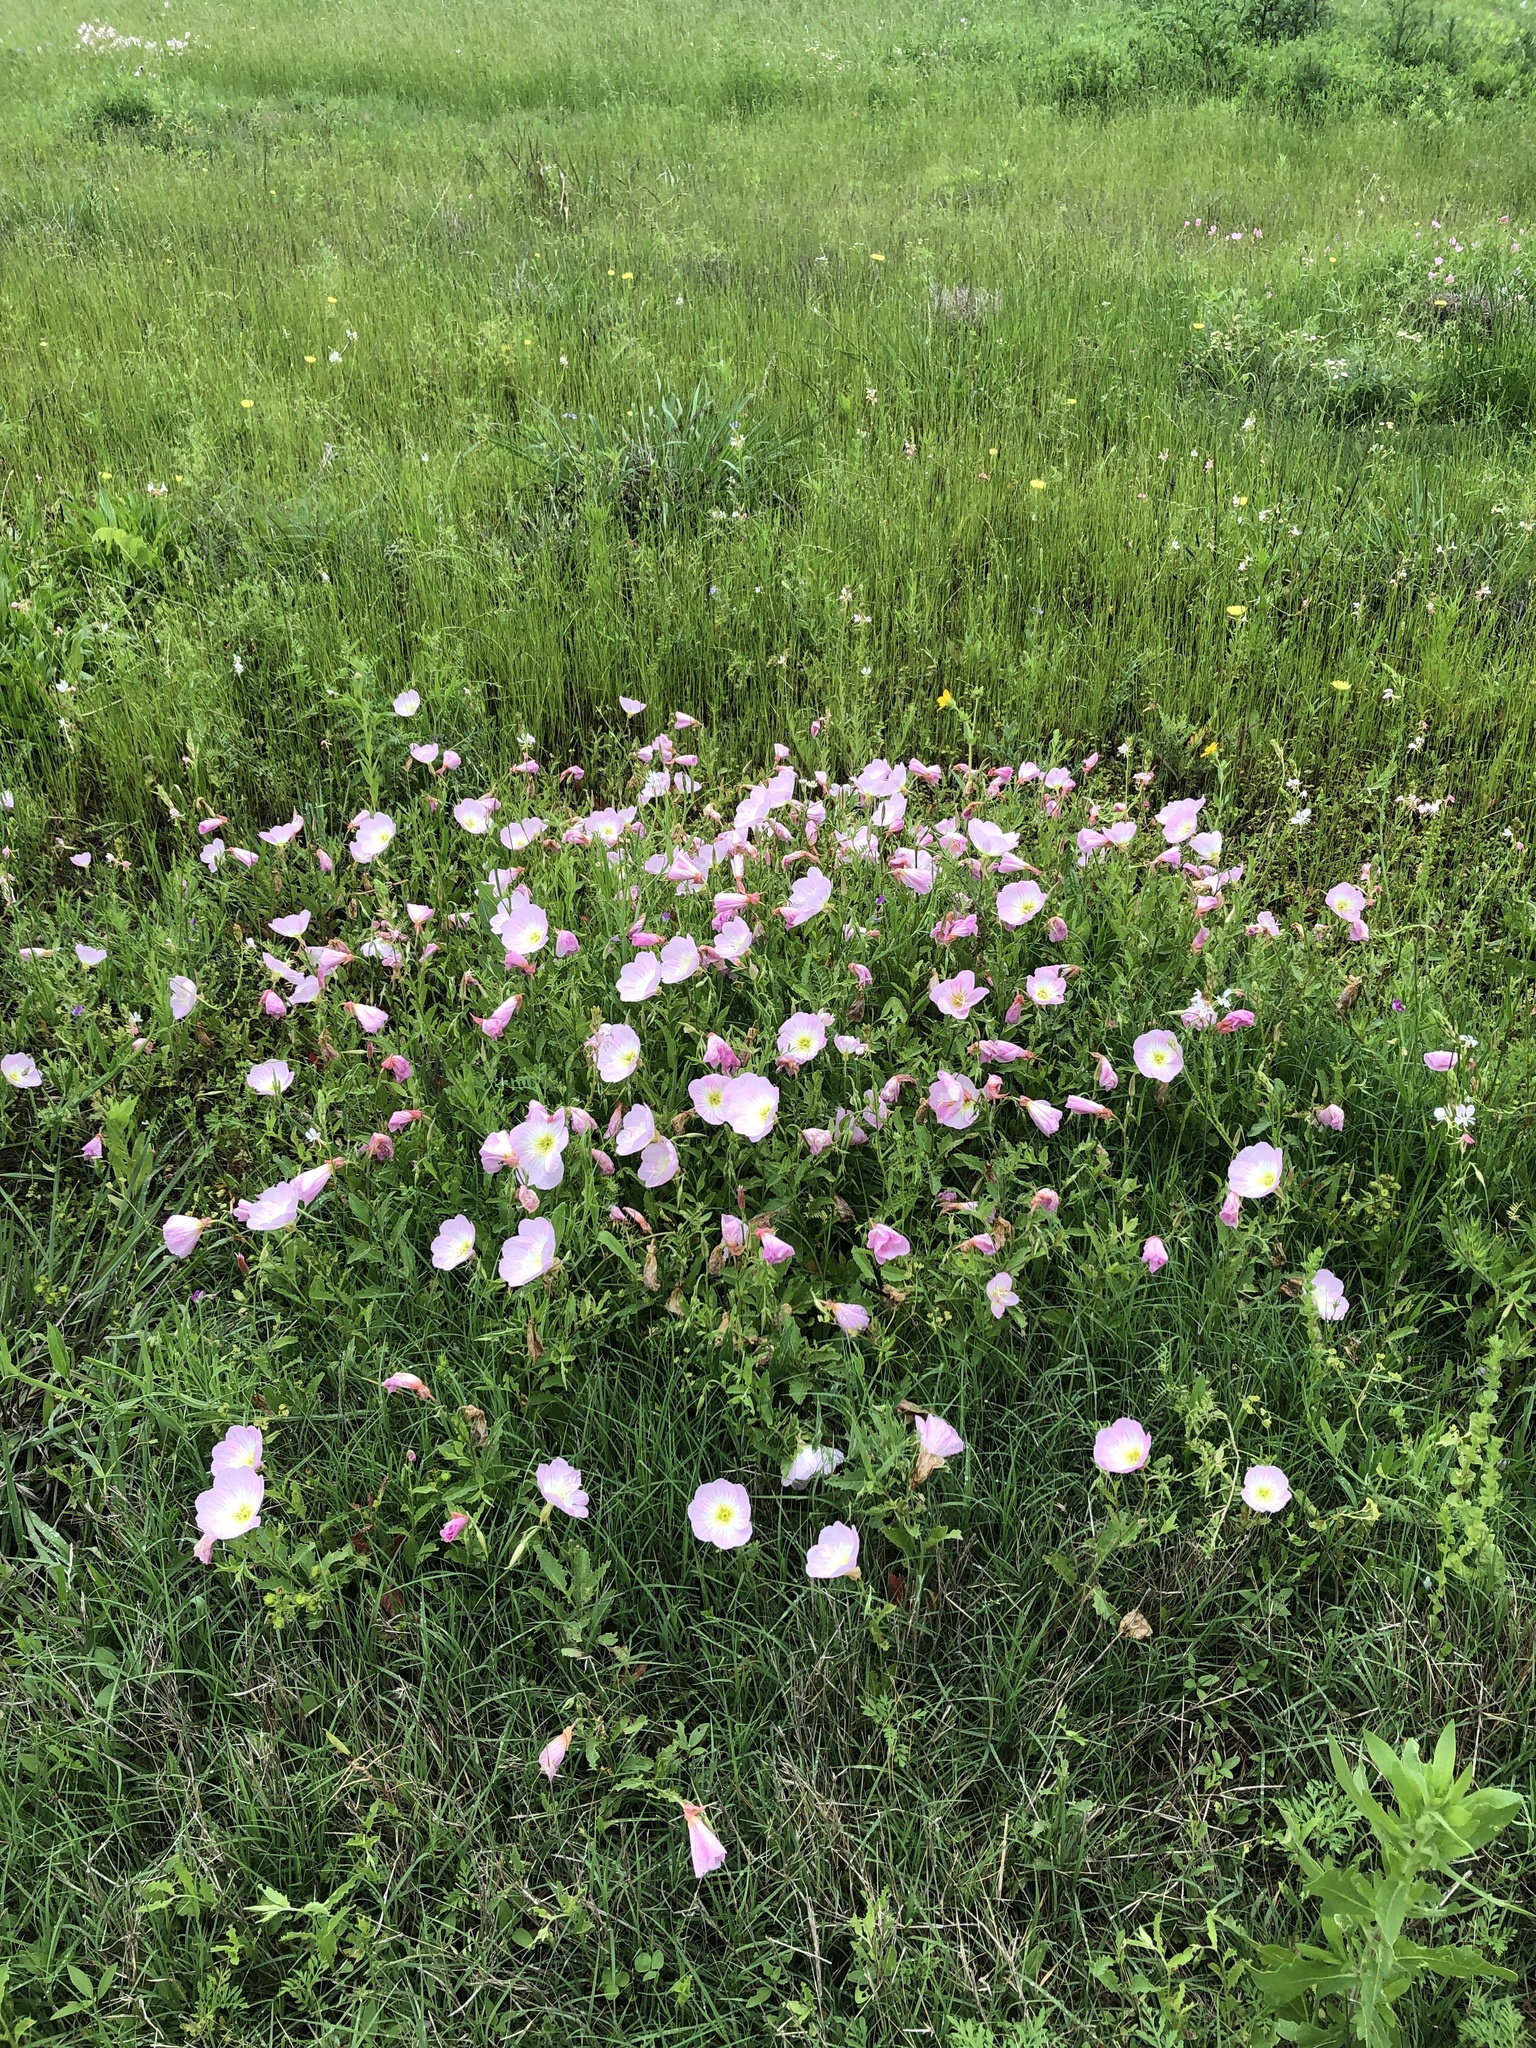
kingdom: Plantae
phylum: Tracheophyta
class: Magnoliopsida
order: Myrtales
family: Onagraceae
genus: Oenothera
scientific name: Oenothera speciosa
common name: White evening-primrose
